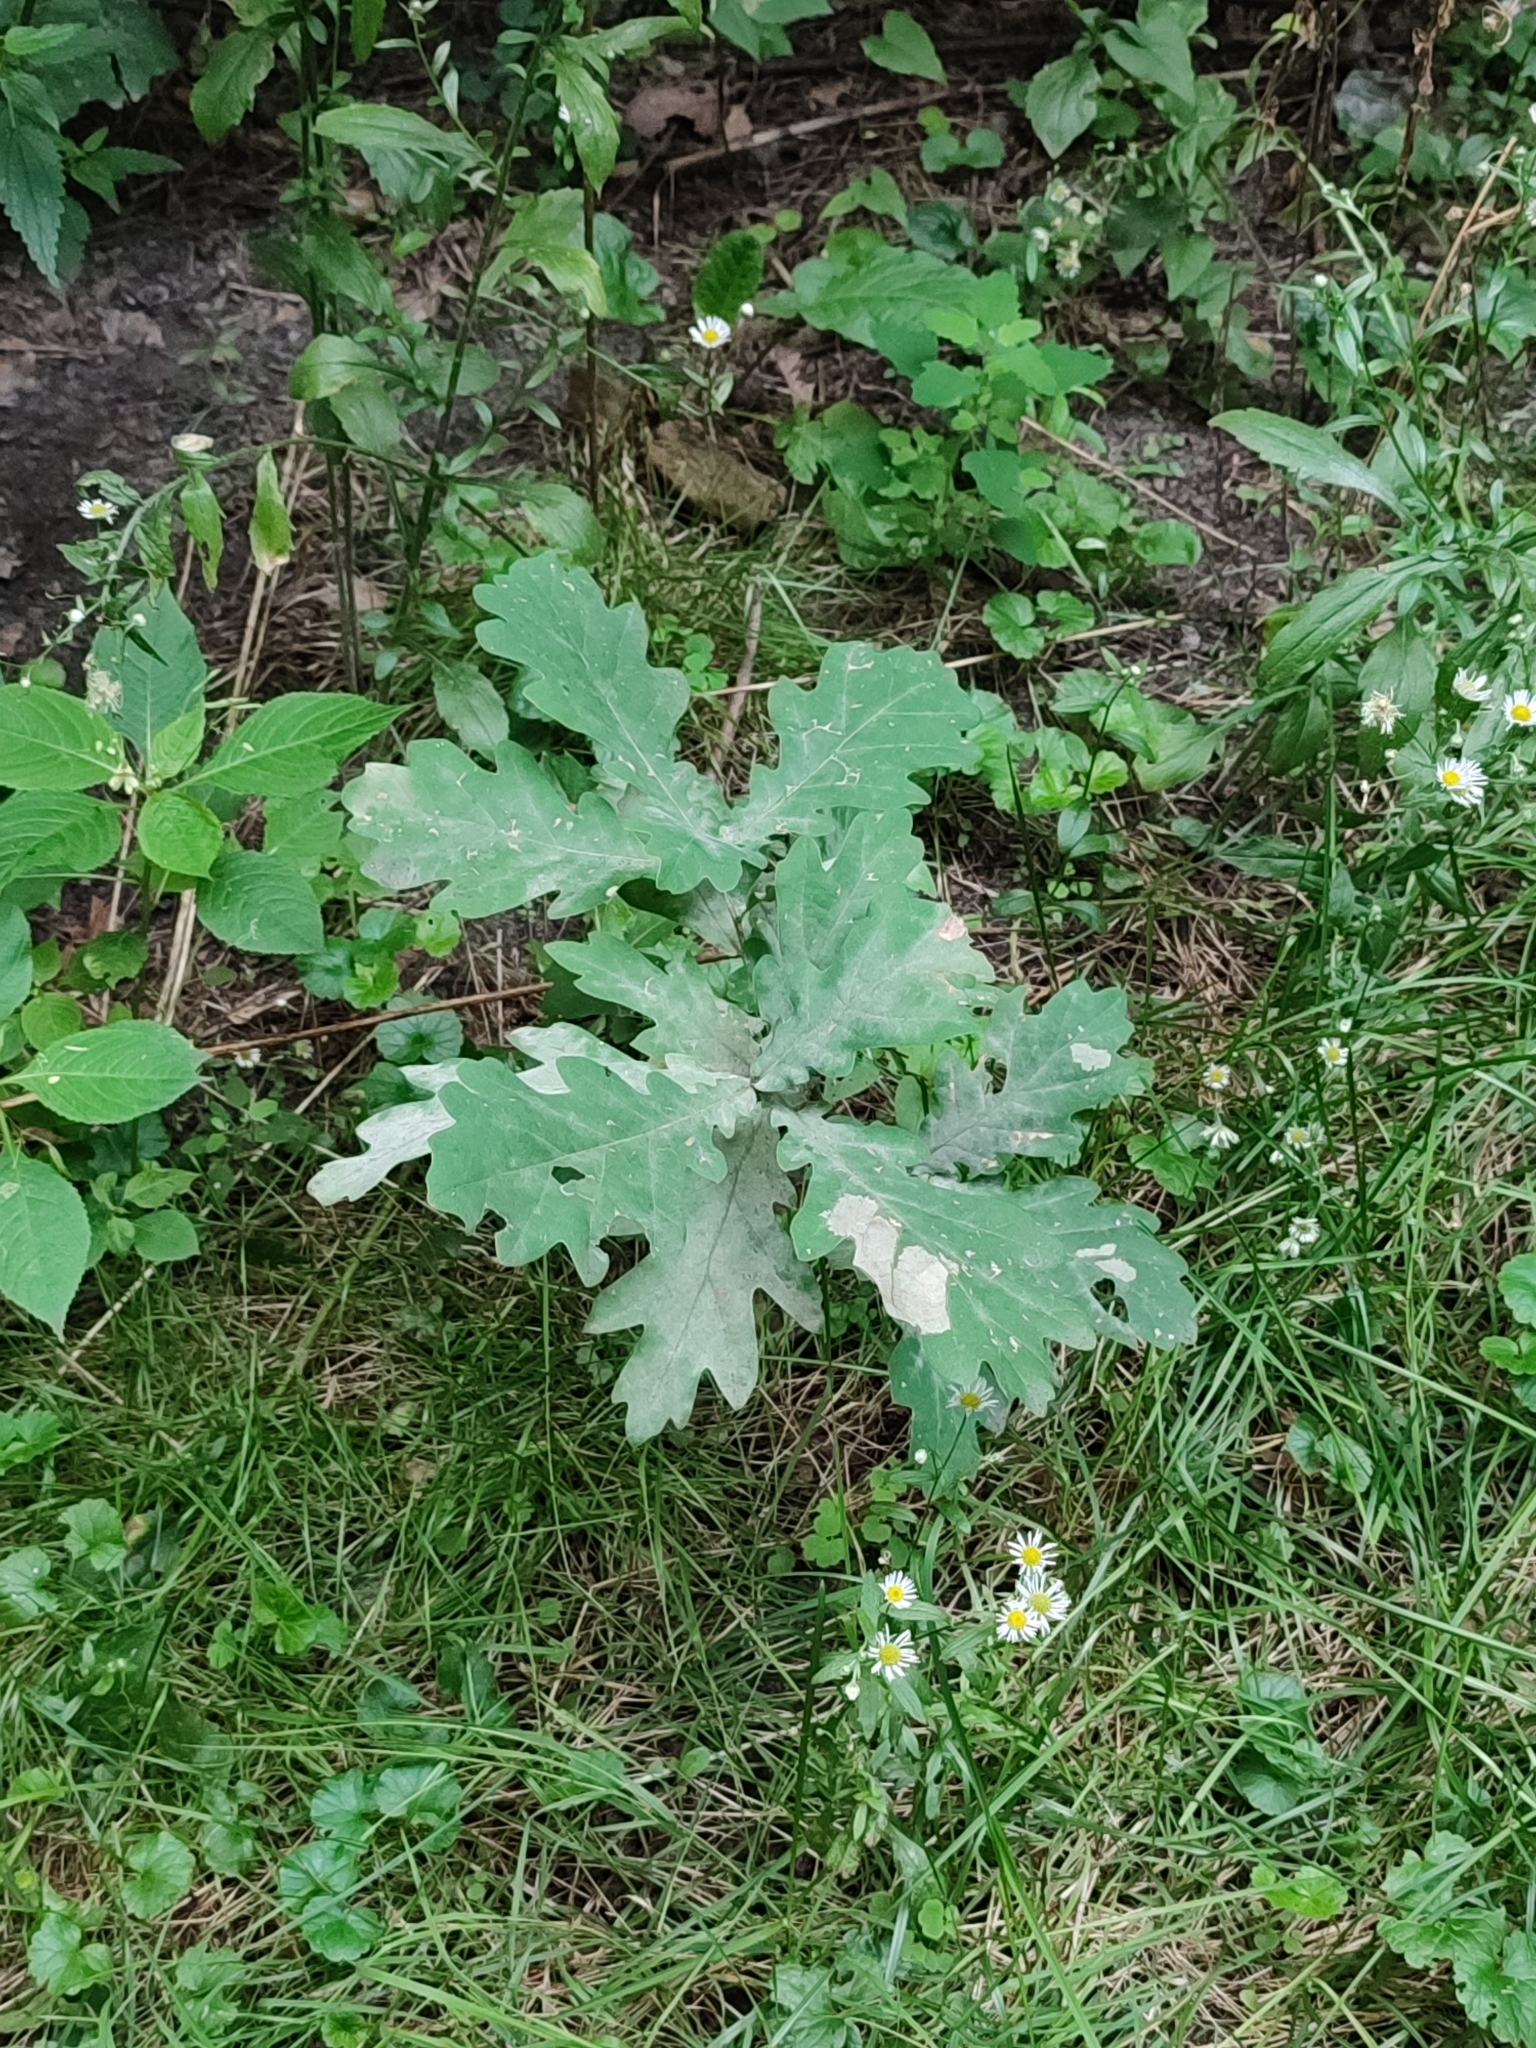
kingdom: Plantae
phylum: Tracheophyta
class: Magnoliopsida
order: Fagales
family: Fagaceae
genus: Quercus
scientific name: Quercus robur
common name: Pedunculate oak
